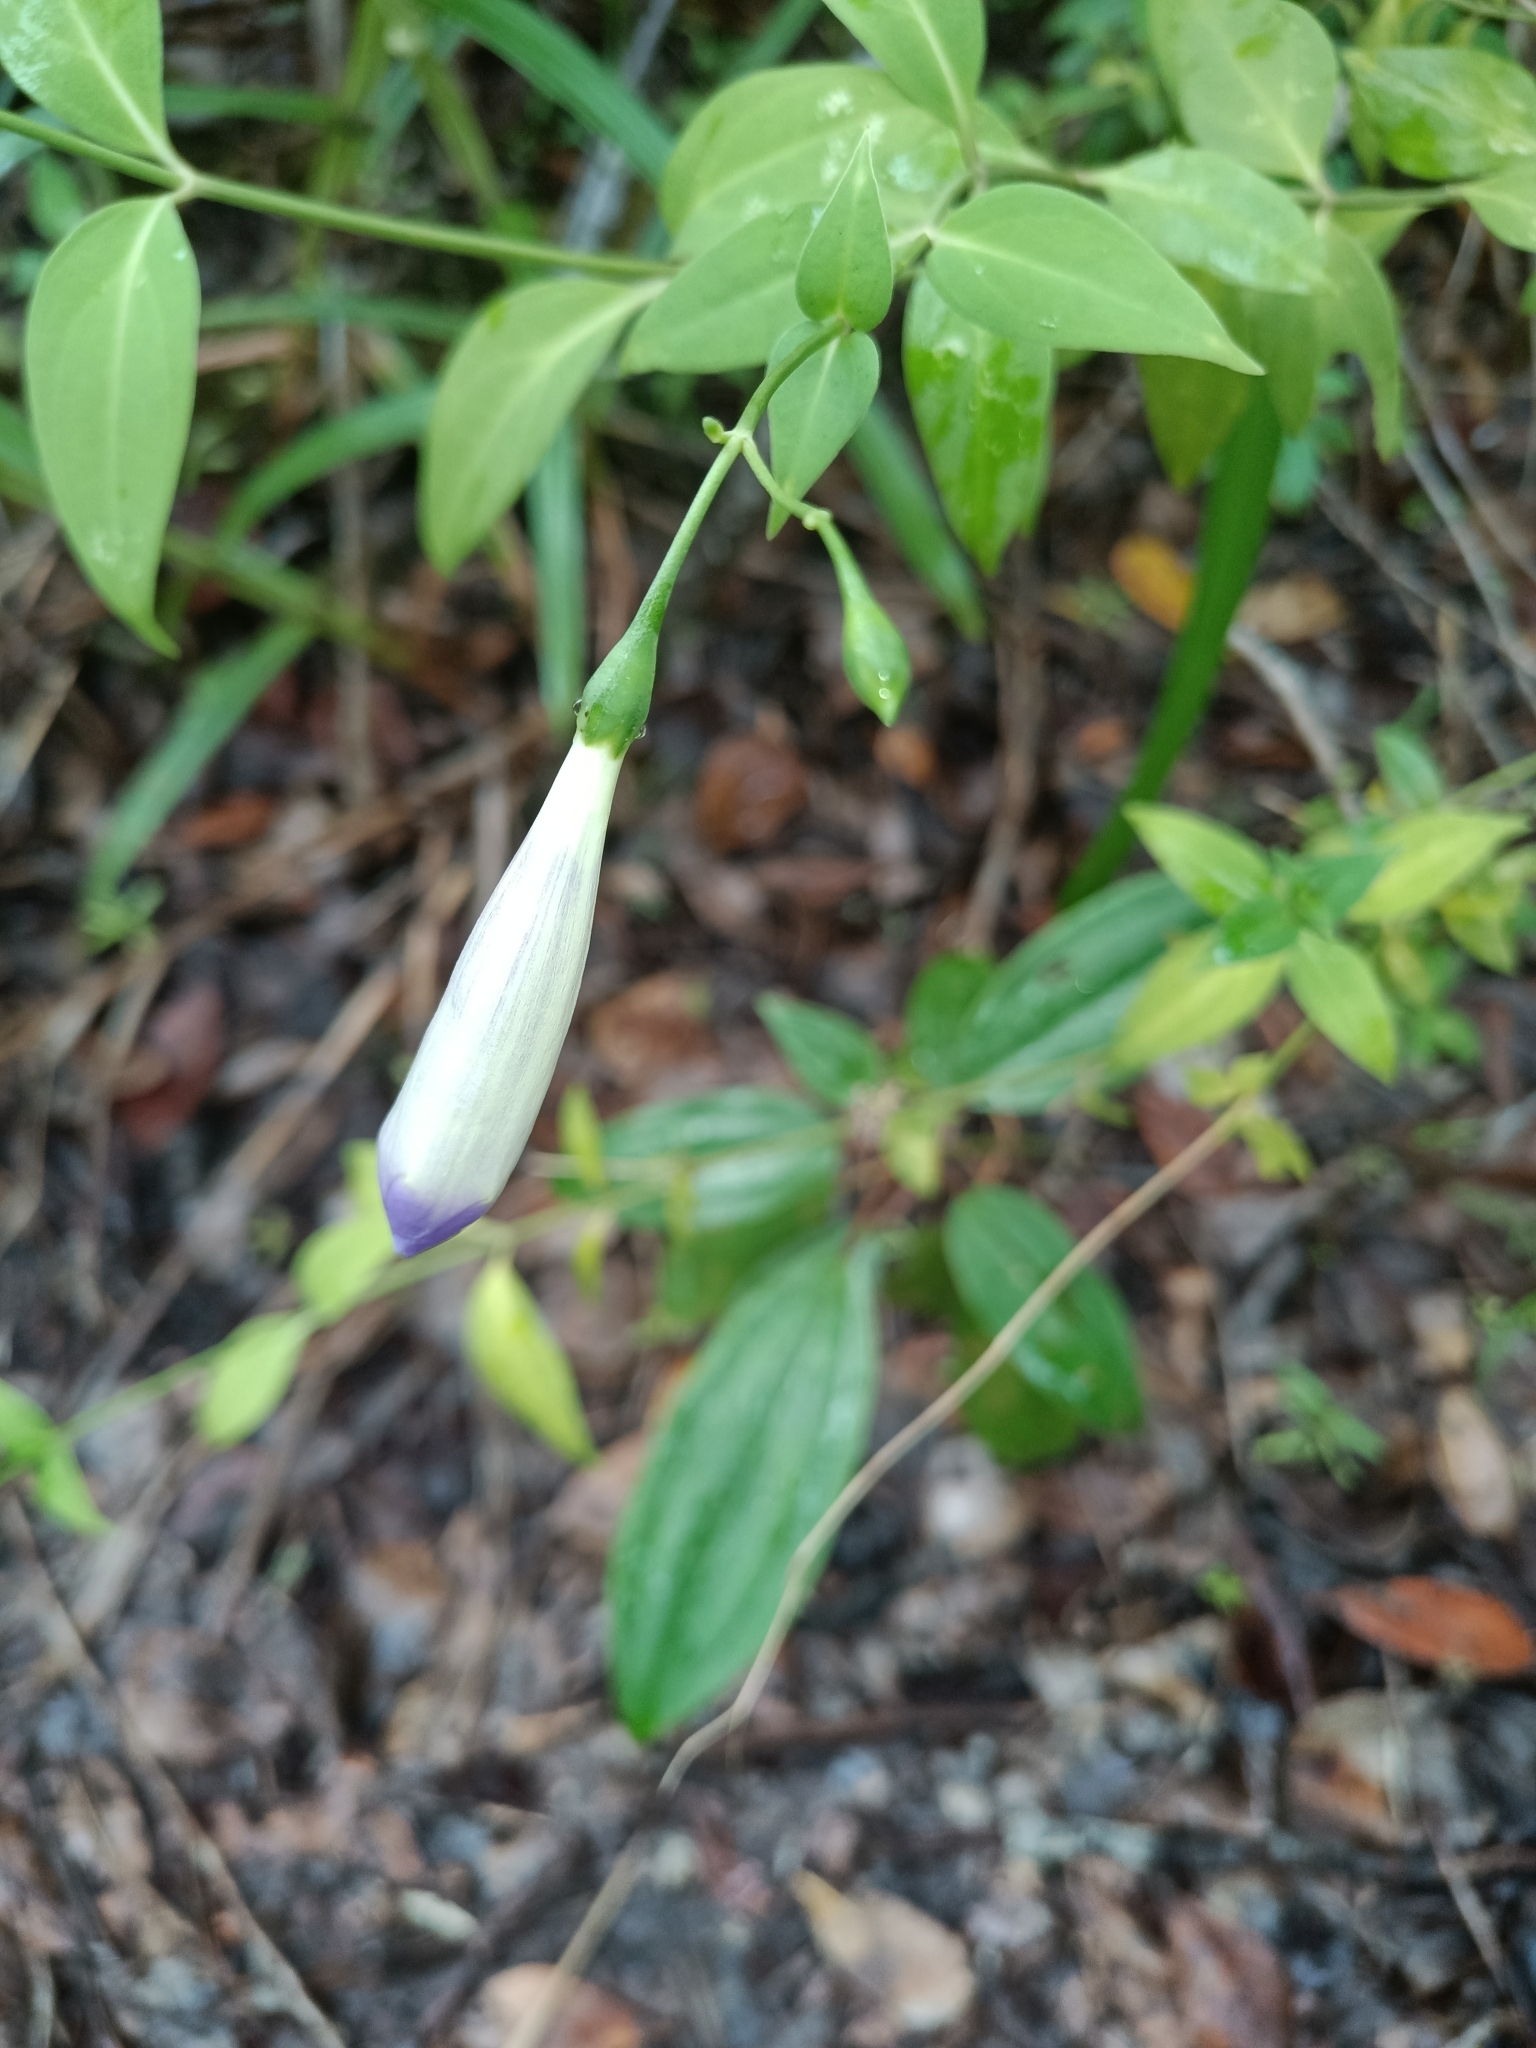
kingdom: Plantae
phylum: Tracheophyta
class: Magnoliopsida
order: Gentianales
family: Gentianaceae
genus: Chelonanthus
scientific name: Chelonanthus purpurascens
